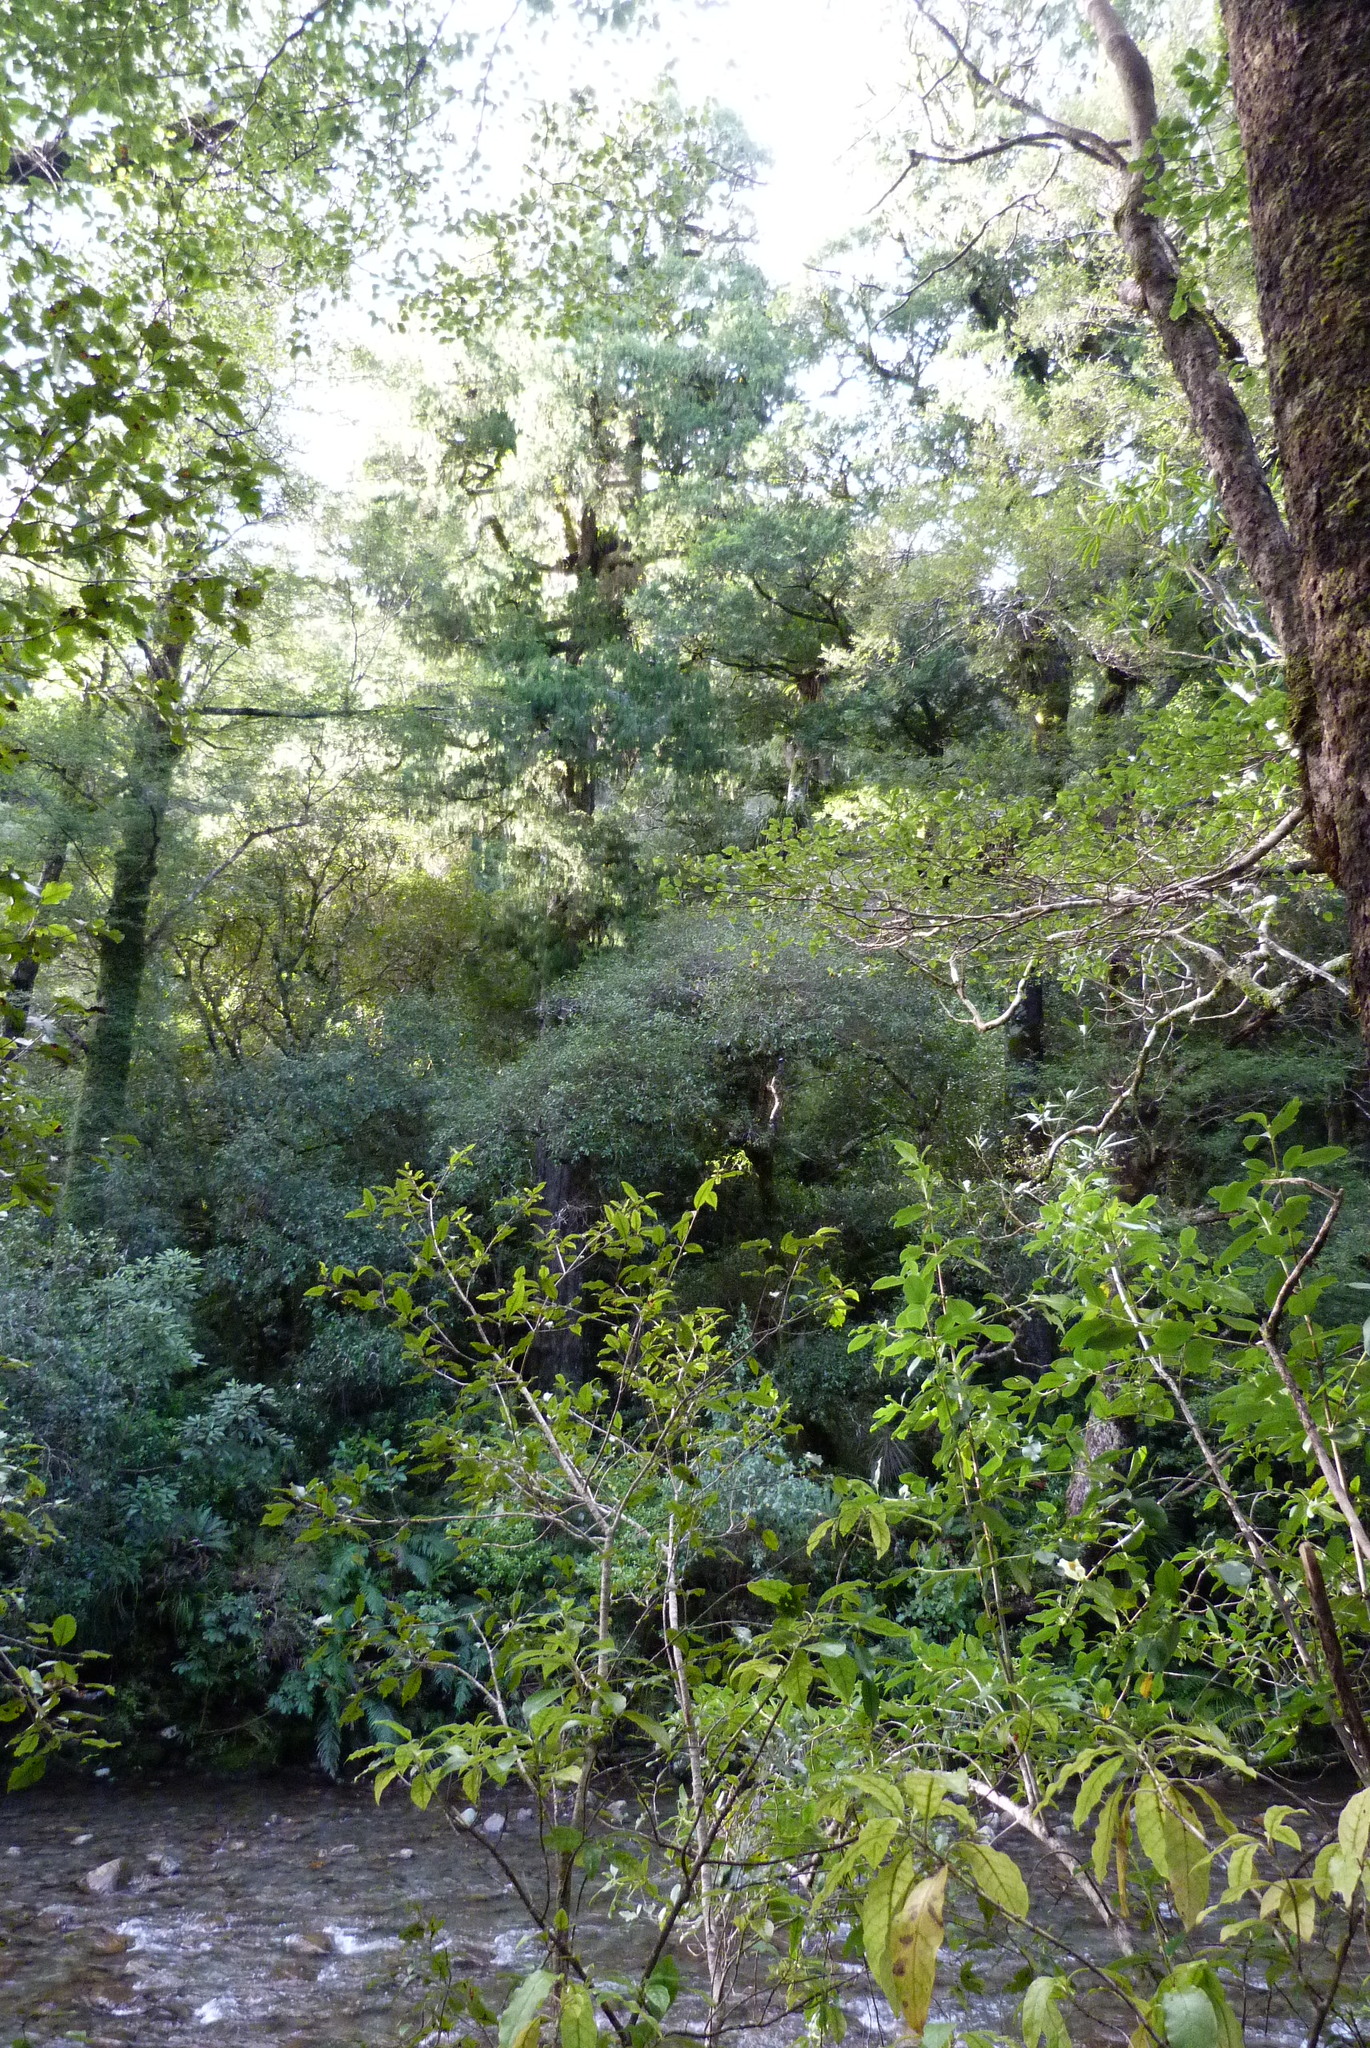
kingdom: Plantae
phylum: Tracheophyta
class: Pinopsida
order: Pinales
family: Podocarpaceae
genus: Dacrydium
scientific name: Dacrydium cupressinum
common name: Red pine
